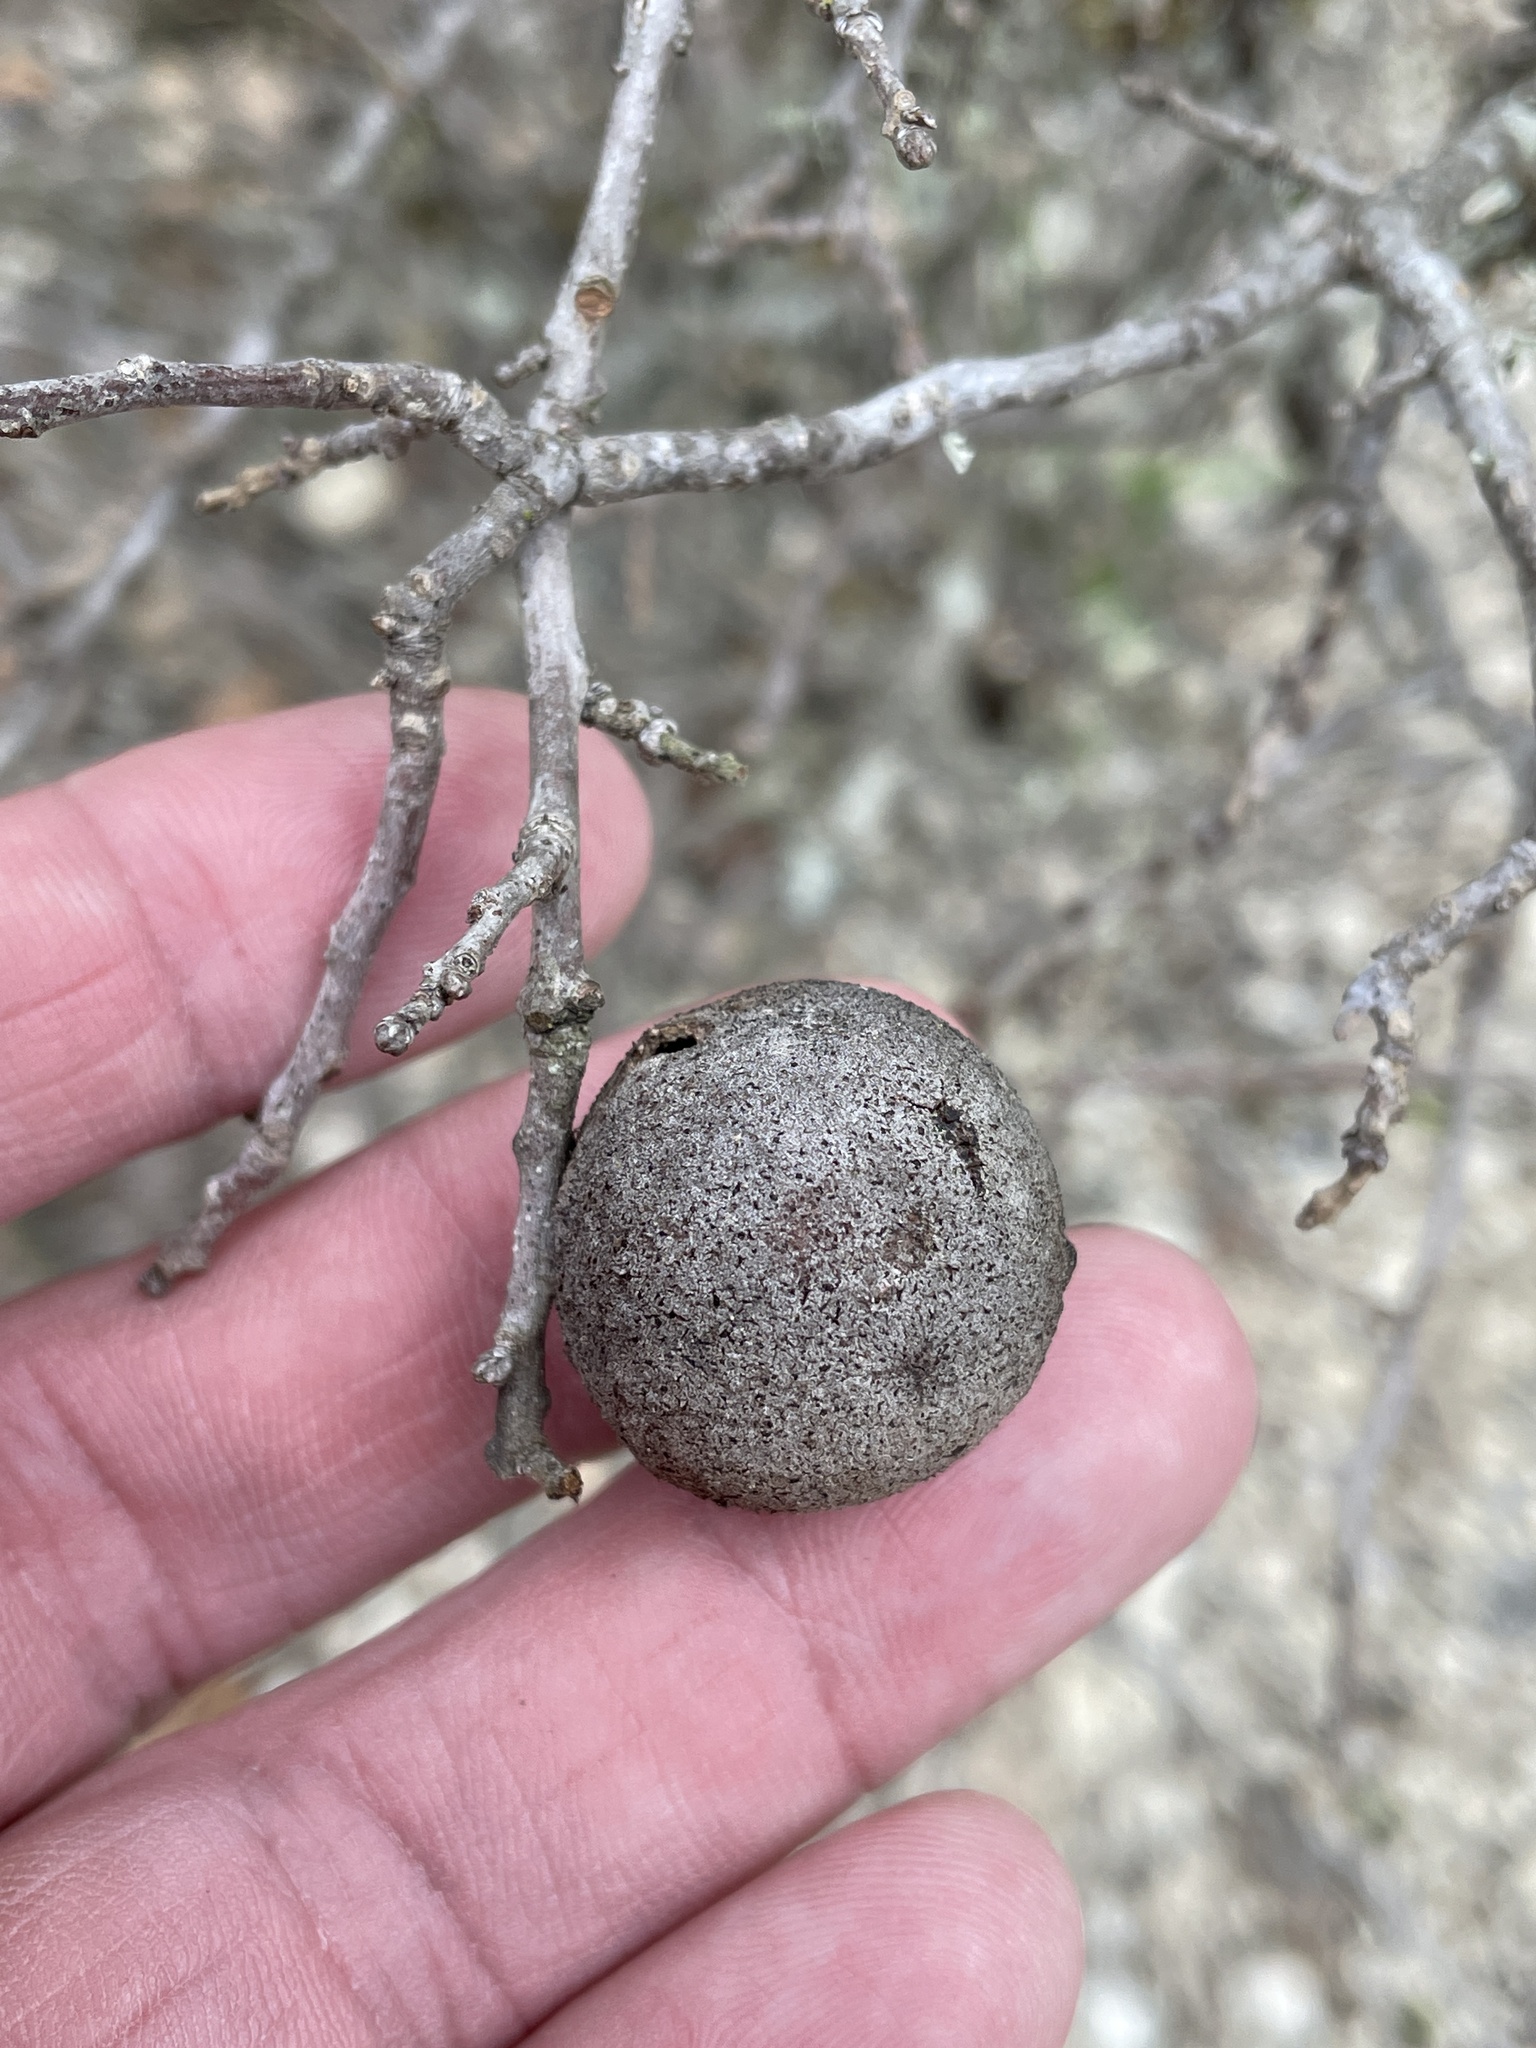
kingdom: Animalia
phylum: Arthropoda
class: Insecta
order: Hymenoptera
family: Cynipidae
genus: Disholcaspis
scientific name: Disholcaspis
